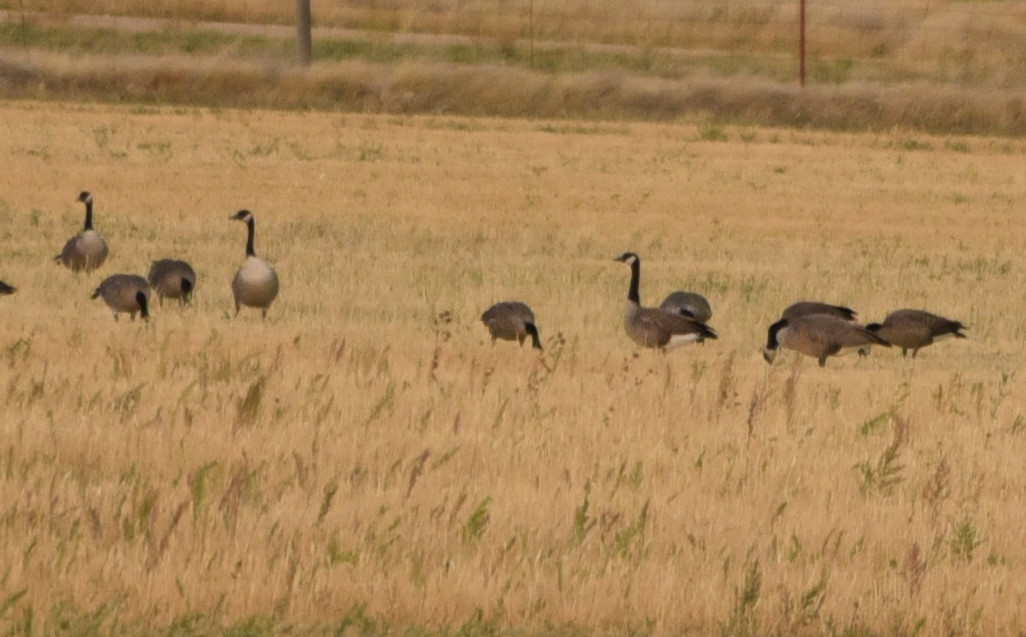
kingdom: Animalia
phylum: Chordata
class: Aves
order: Anseriformes
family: Anatidae
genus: Branta
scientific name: Branta canadensis
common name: Canada goose
